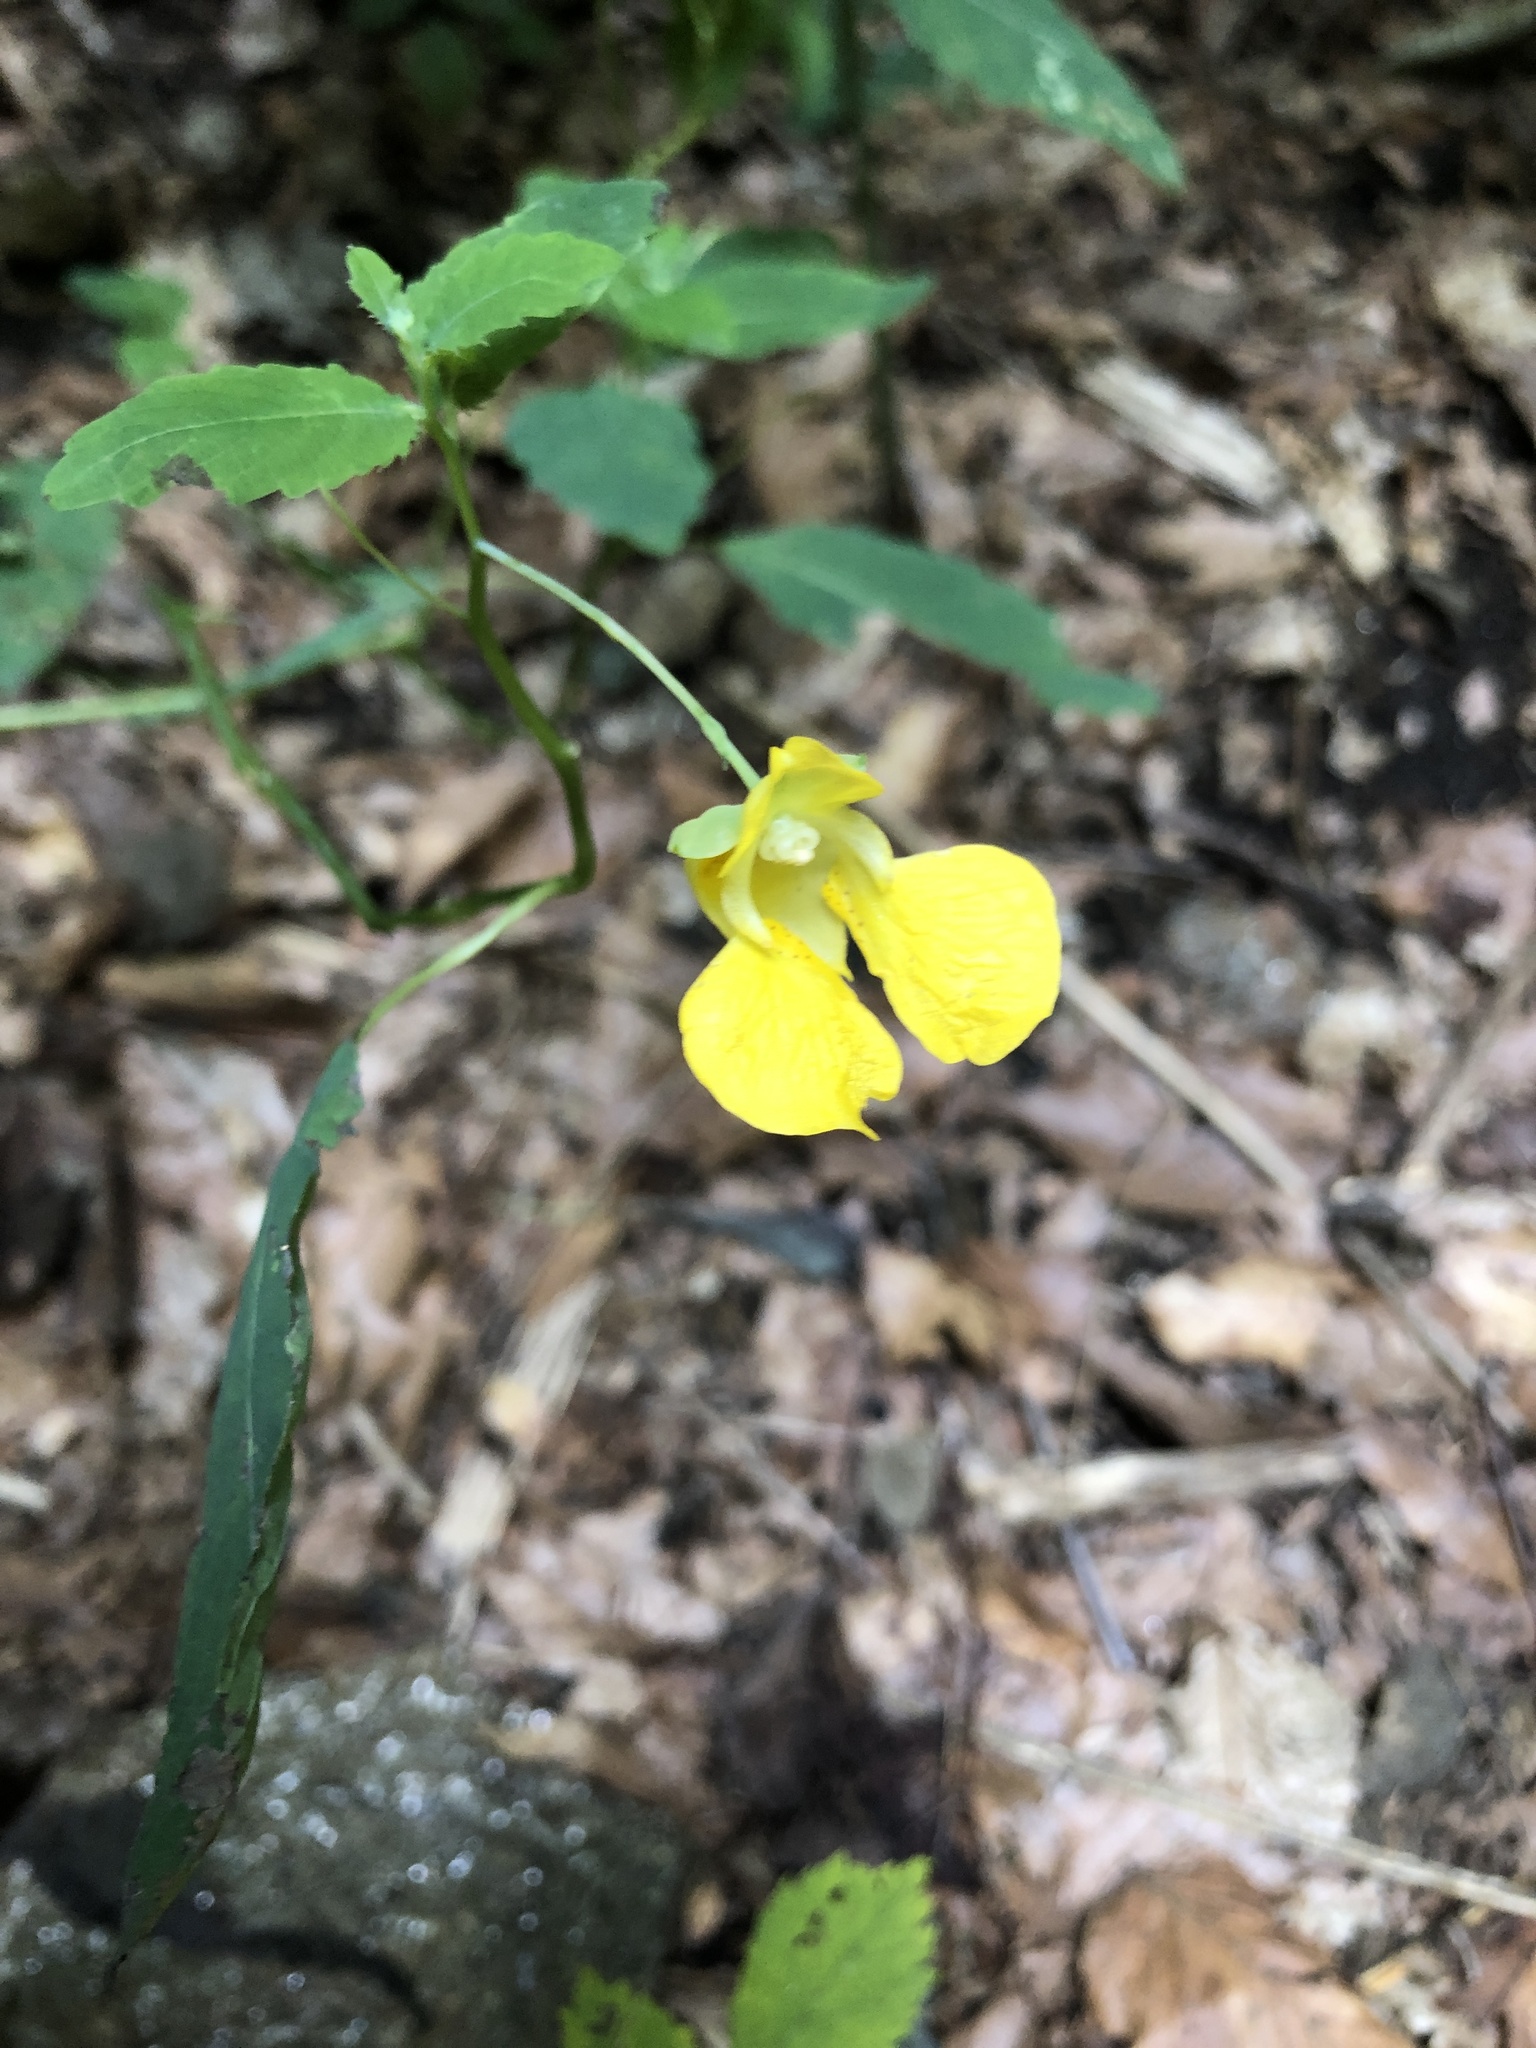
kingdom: Plantae
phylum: Tracheophyta
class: Magnoliopsida
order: Ericales
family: Balsaminaceae
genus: Impatiens
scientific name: Impatiens pallida
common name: Pale snapweed
